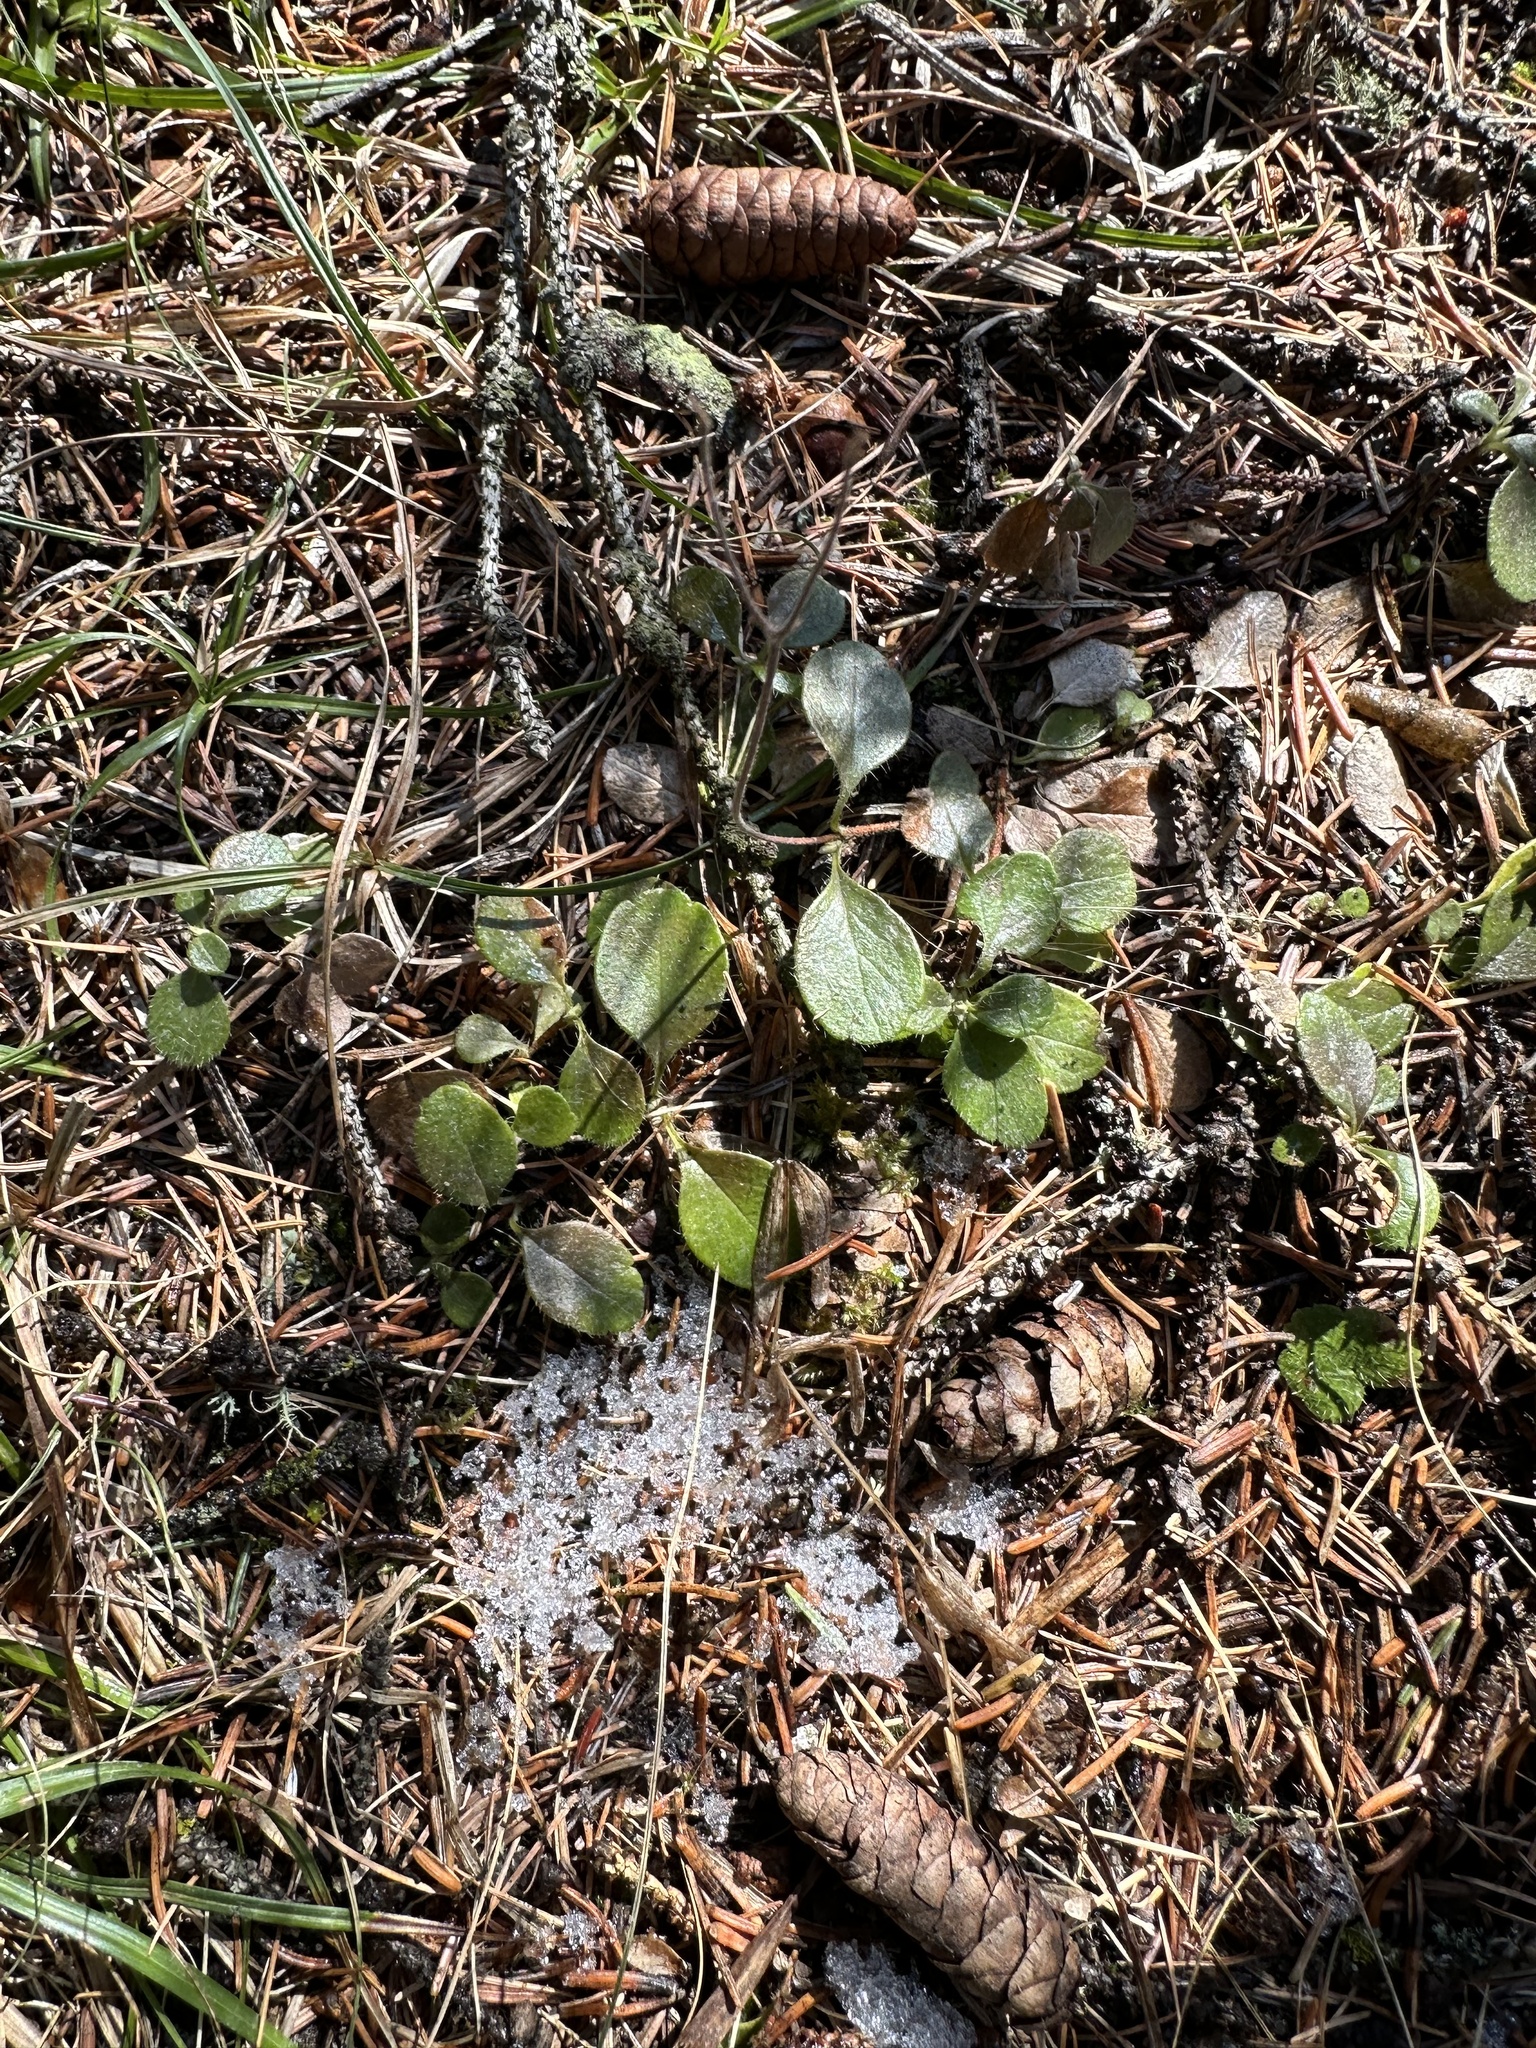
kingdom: Plantae
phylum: Tracheophyta
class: Magnoliopsida
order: Dipsacales
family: Caprifoliaceae
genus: Linnaea
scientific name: Linnaea borealis
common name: Twinflower
